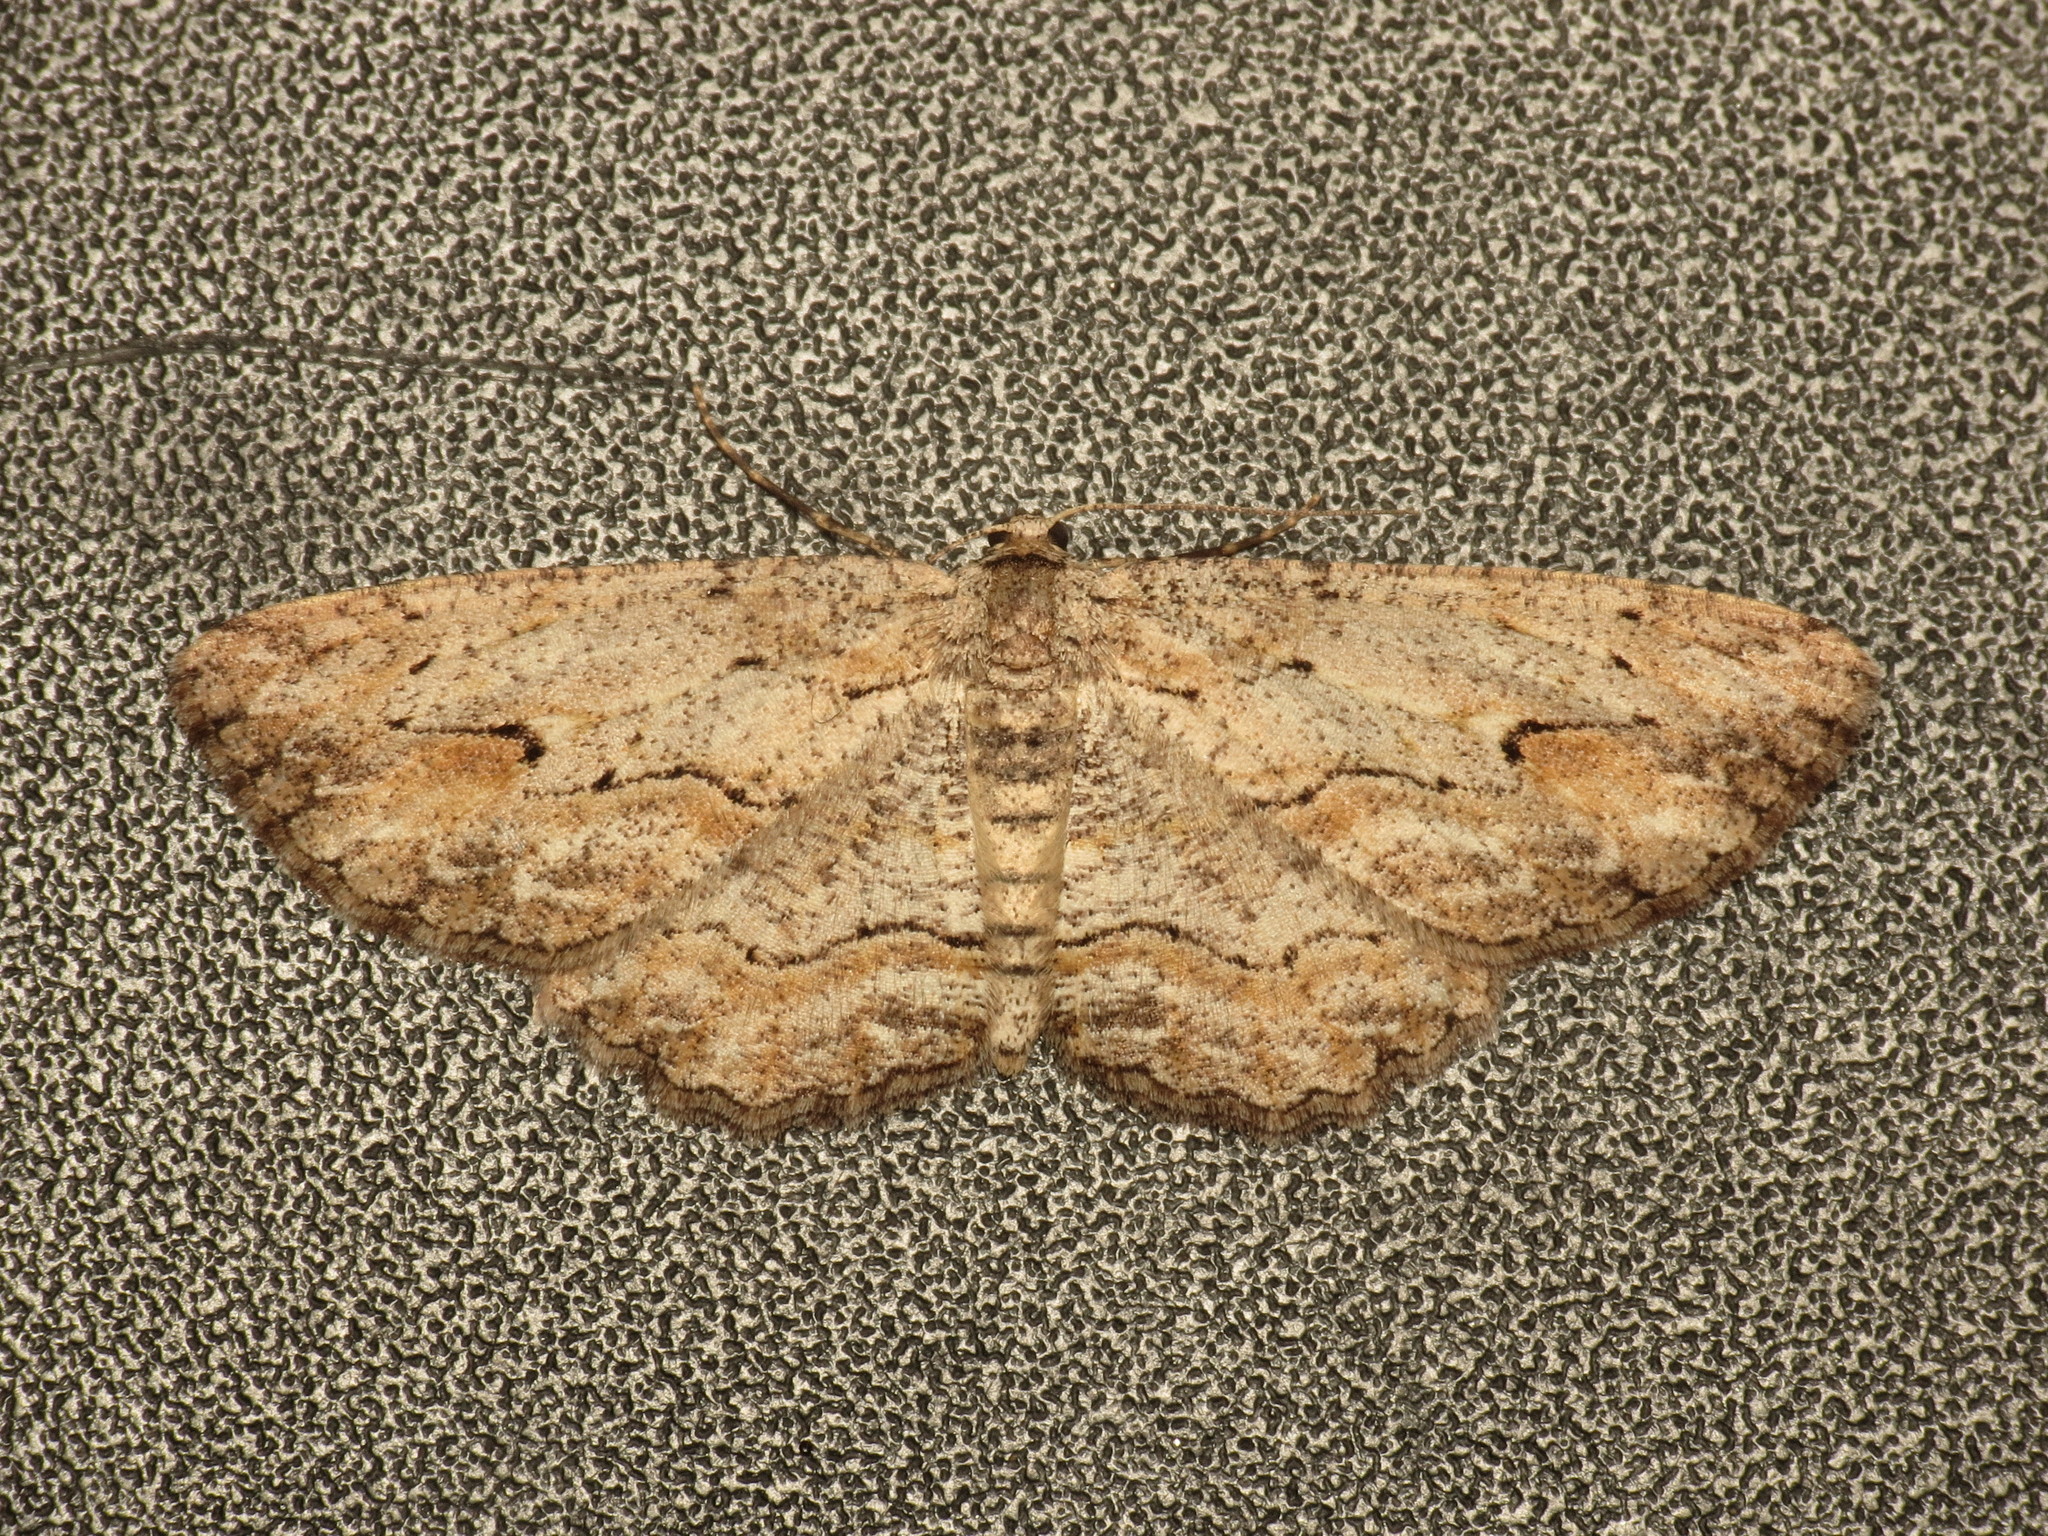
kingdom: Animalia
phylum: Arthropoda
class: Insecta
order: Lepidoptera
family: Geometridae
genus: Ectropis
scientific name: Ectropis excursaria
